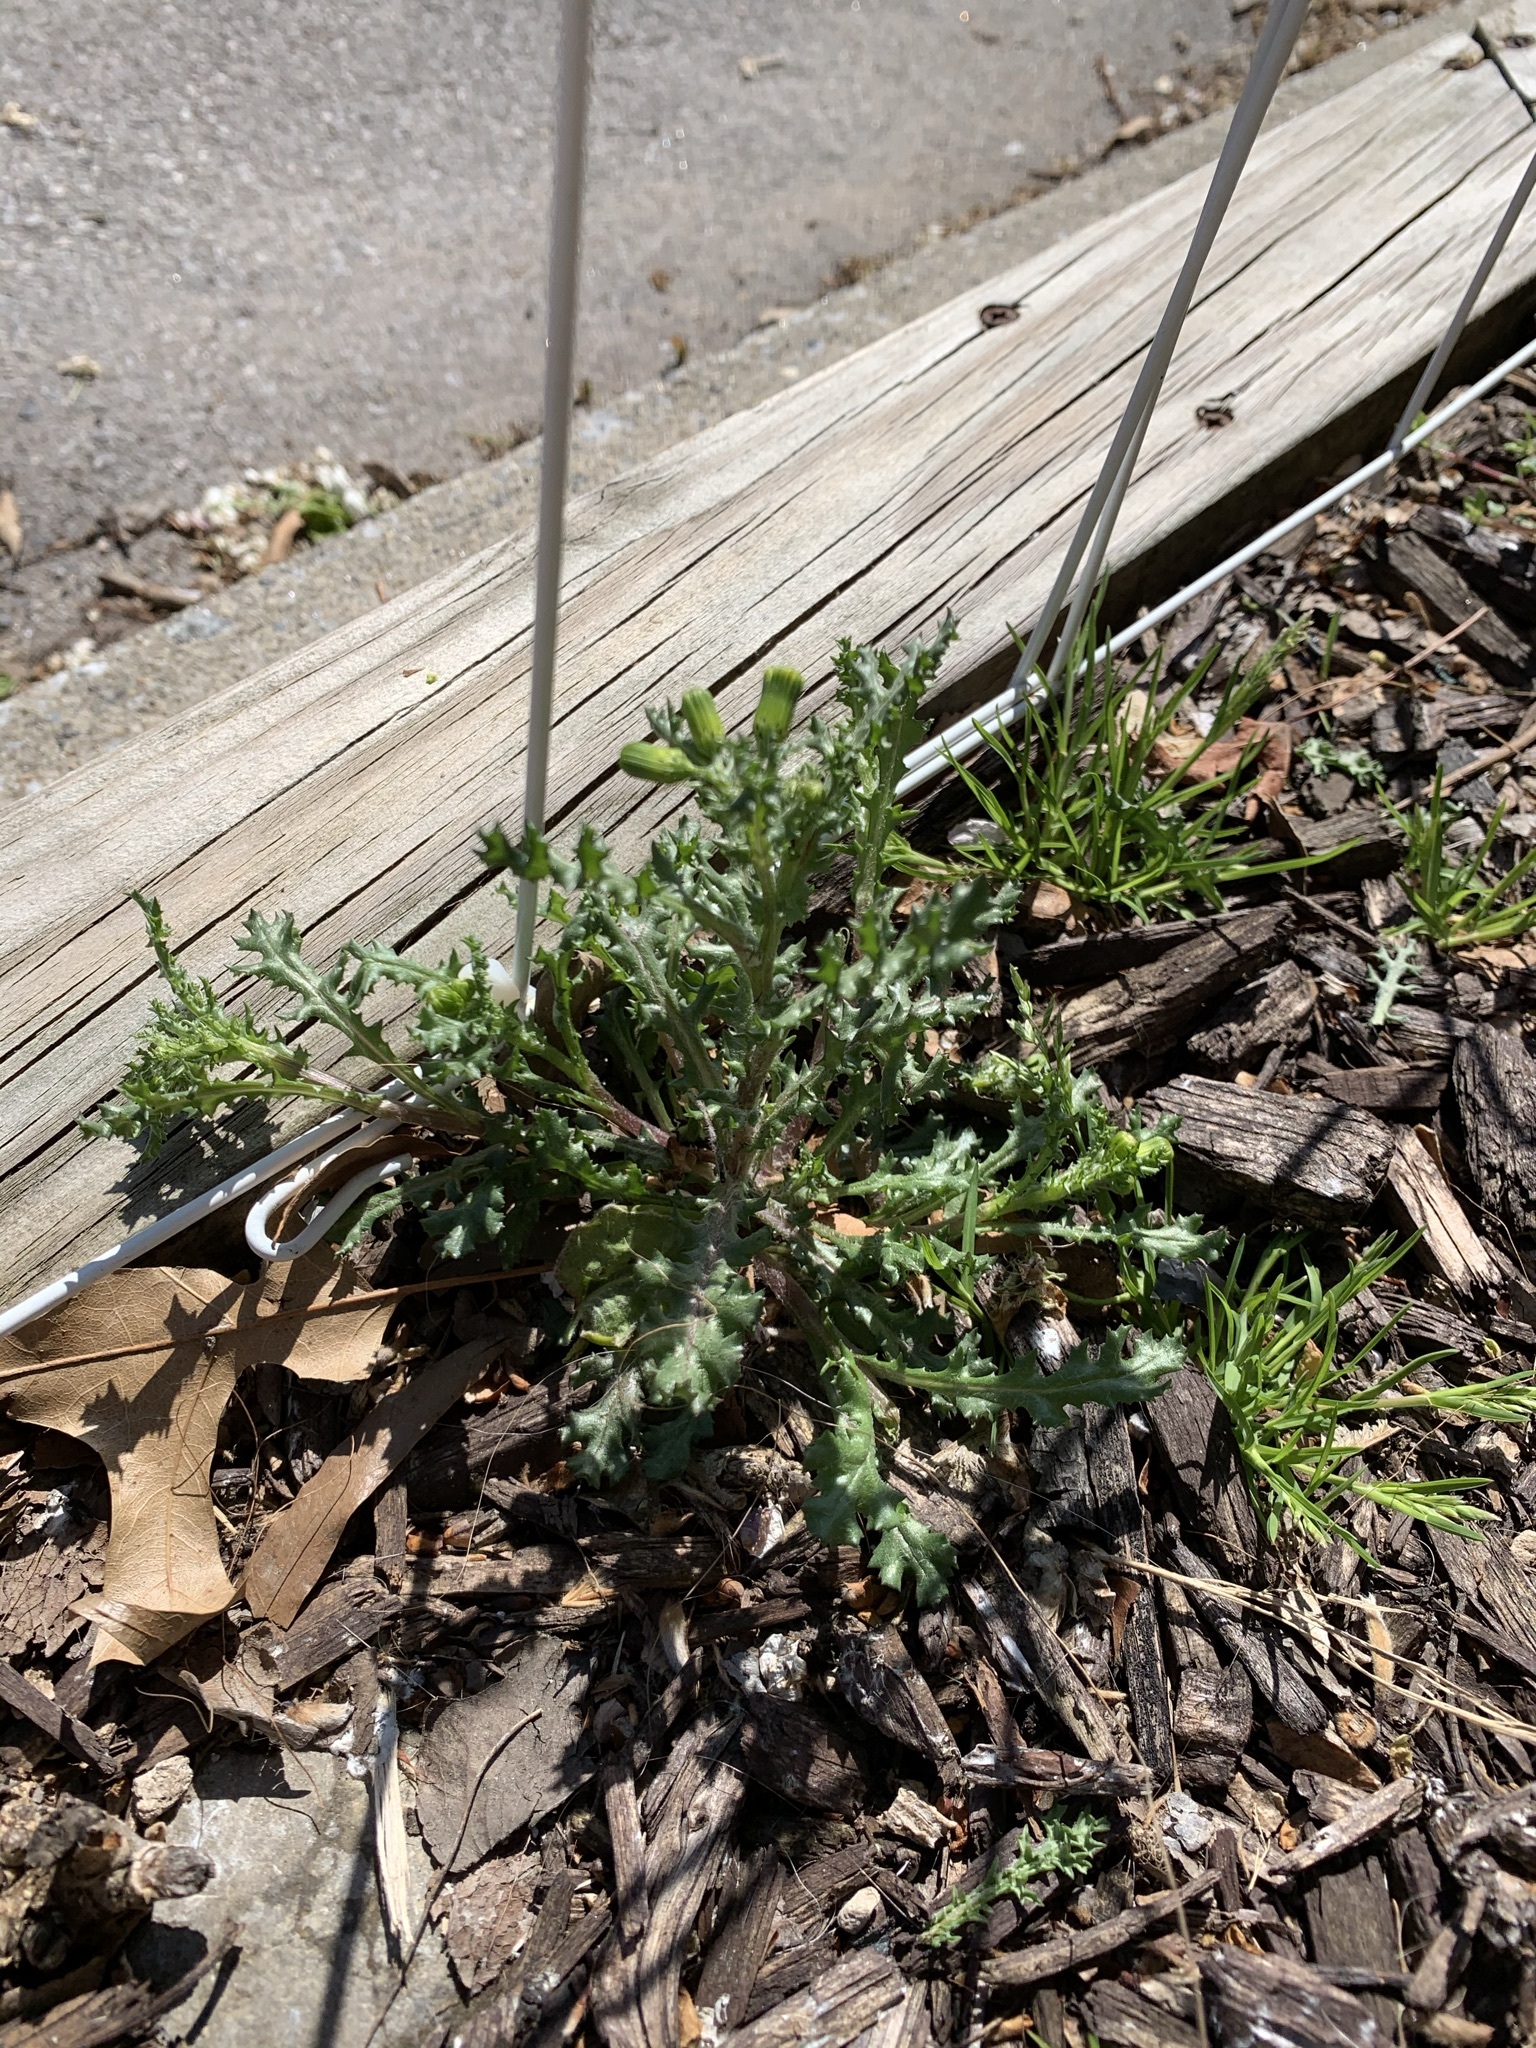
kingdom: Plantae
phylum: Tracheophyta
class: Magnoliopsida
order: Asterales
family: Asteraceae
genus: Senecio
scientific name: Senecio vulgaris
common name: Old-man-in-the-spring
